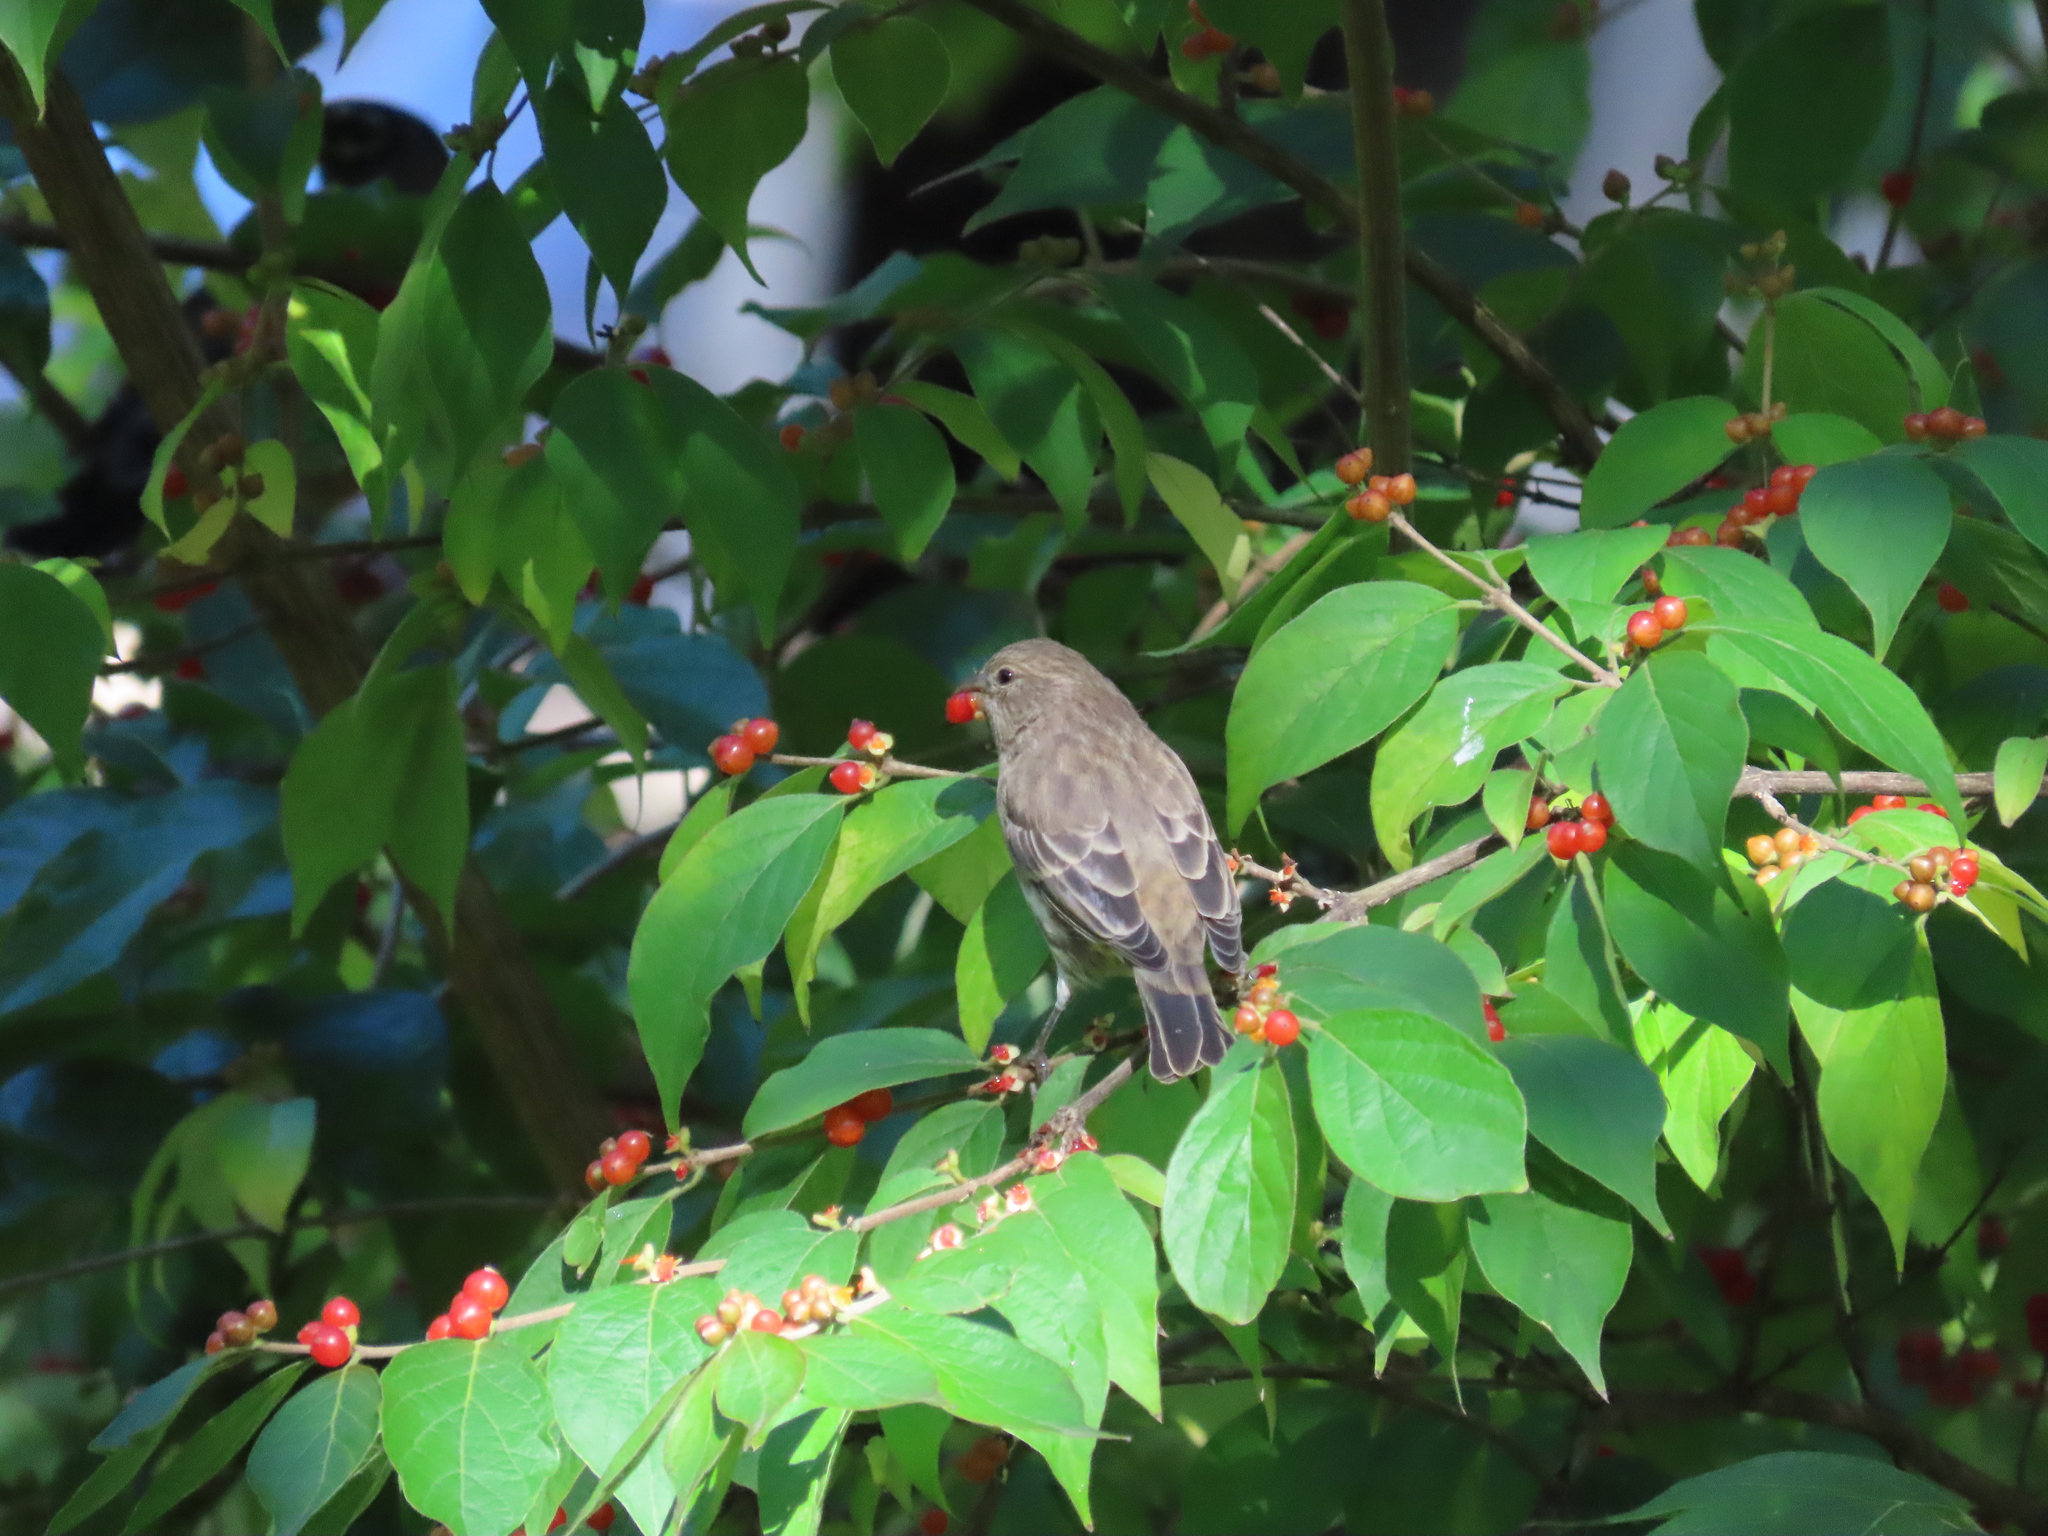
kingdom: Animalia
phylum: Chordata
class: Aves
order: Passeriformes
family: Fringillidae
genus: Haemorhous
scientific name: Haemorhous mexicanus
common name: House finch
